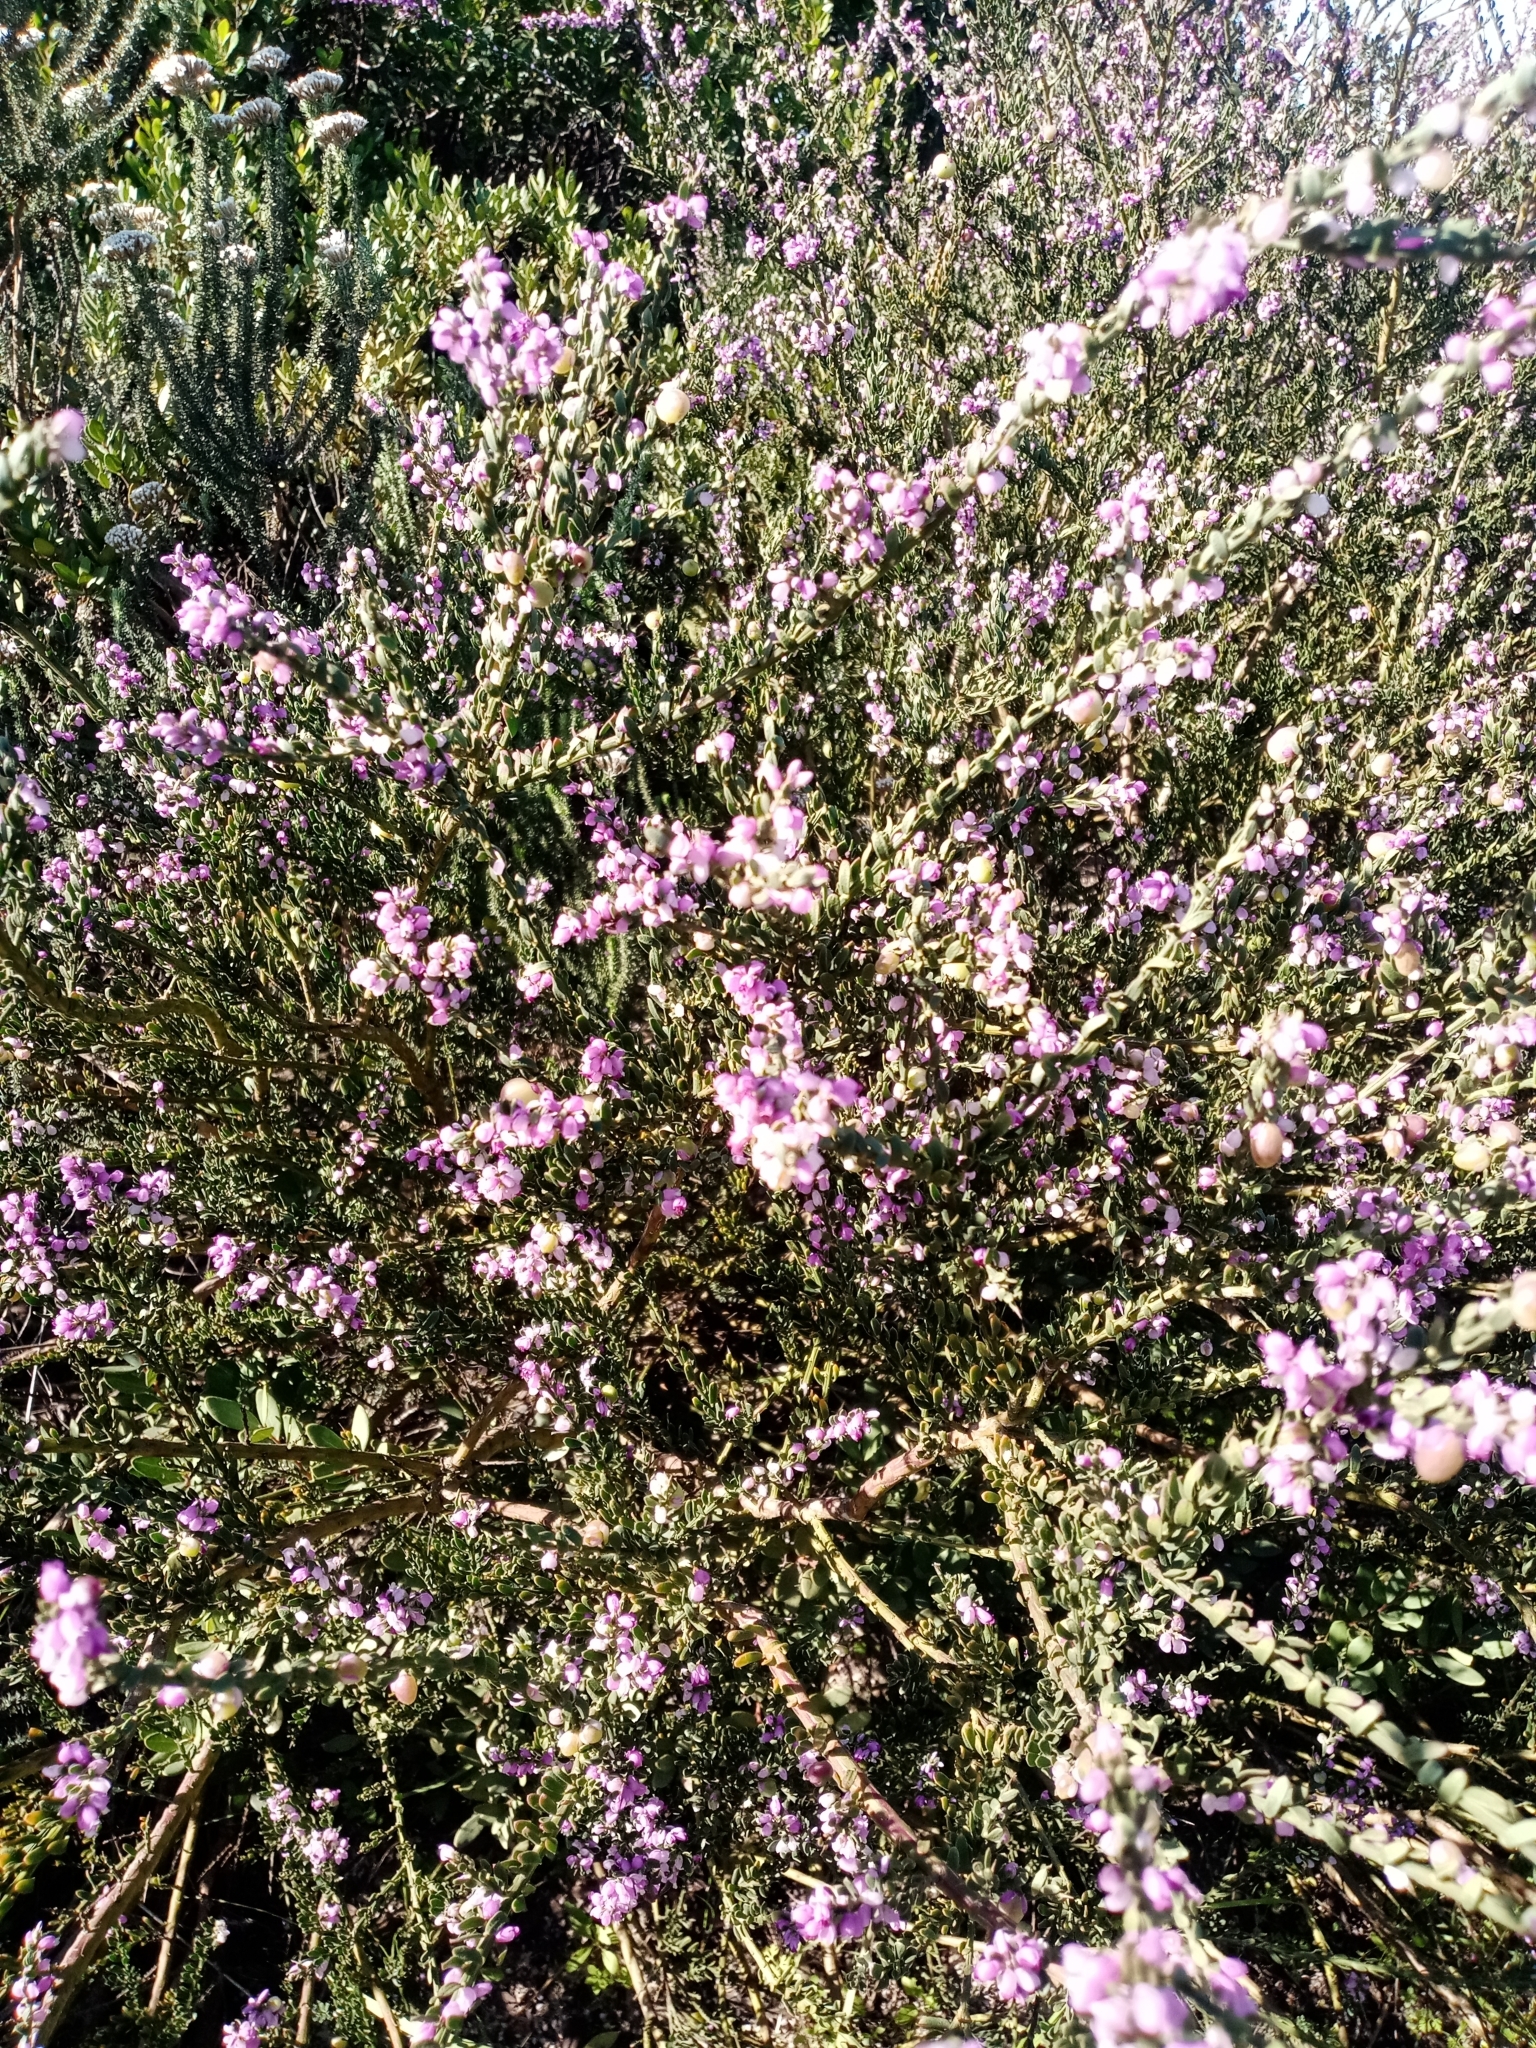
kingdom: Plantae
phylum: Tracheophyta
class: Magnoliopsida
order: Fabales
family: Polygalaceae
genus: Muraltia
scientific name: Muraltia spinosa
